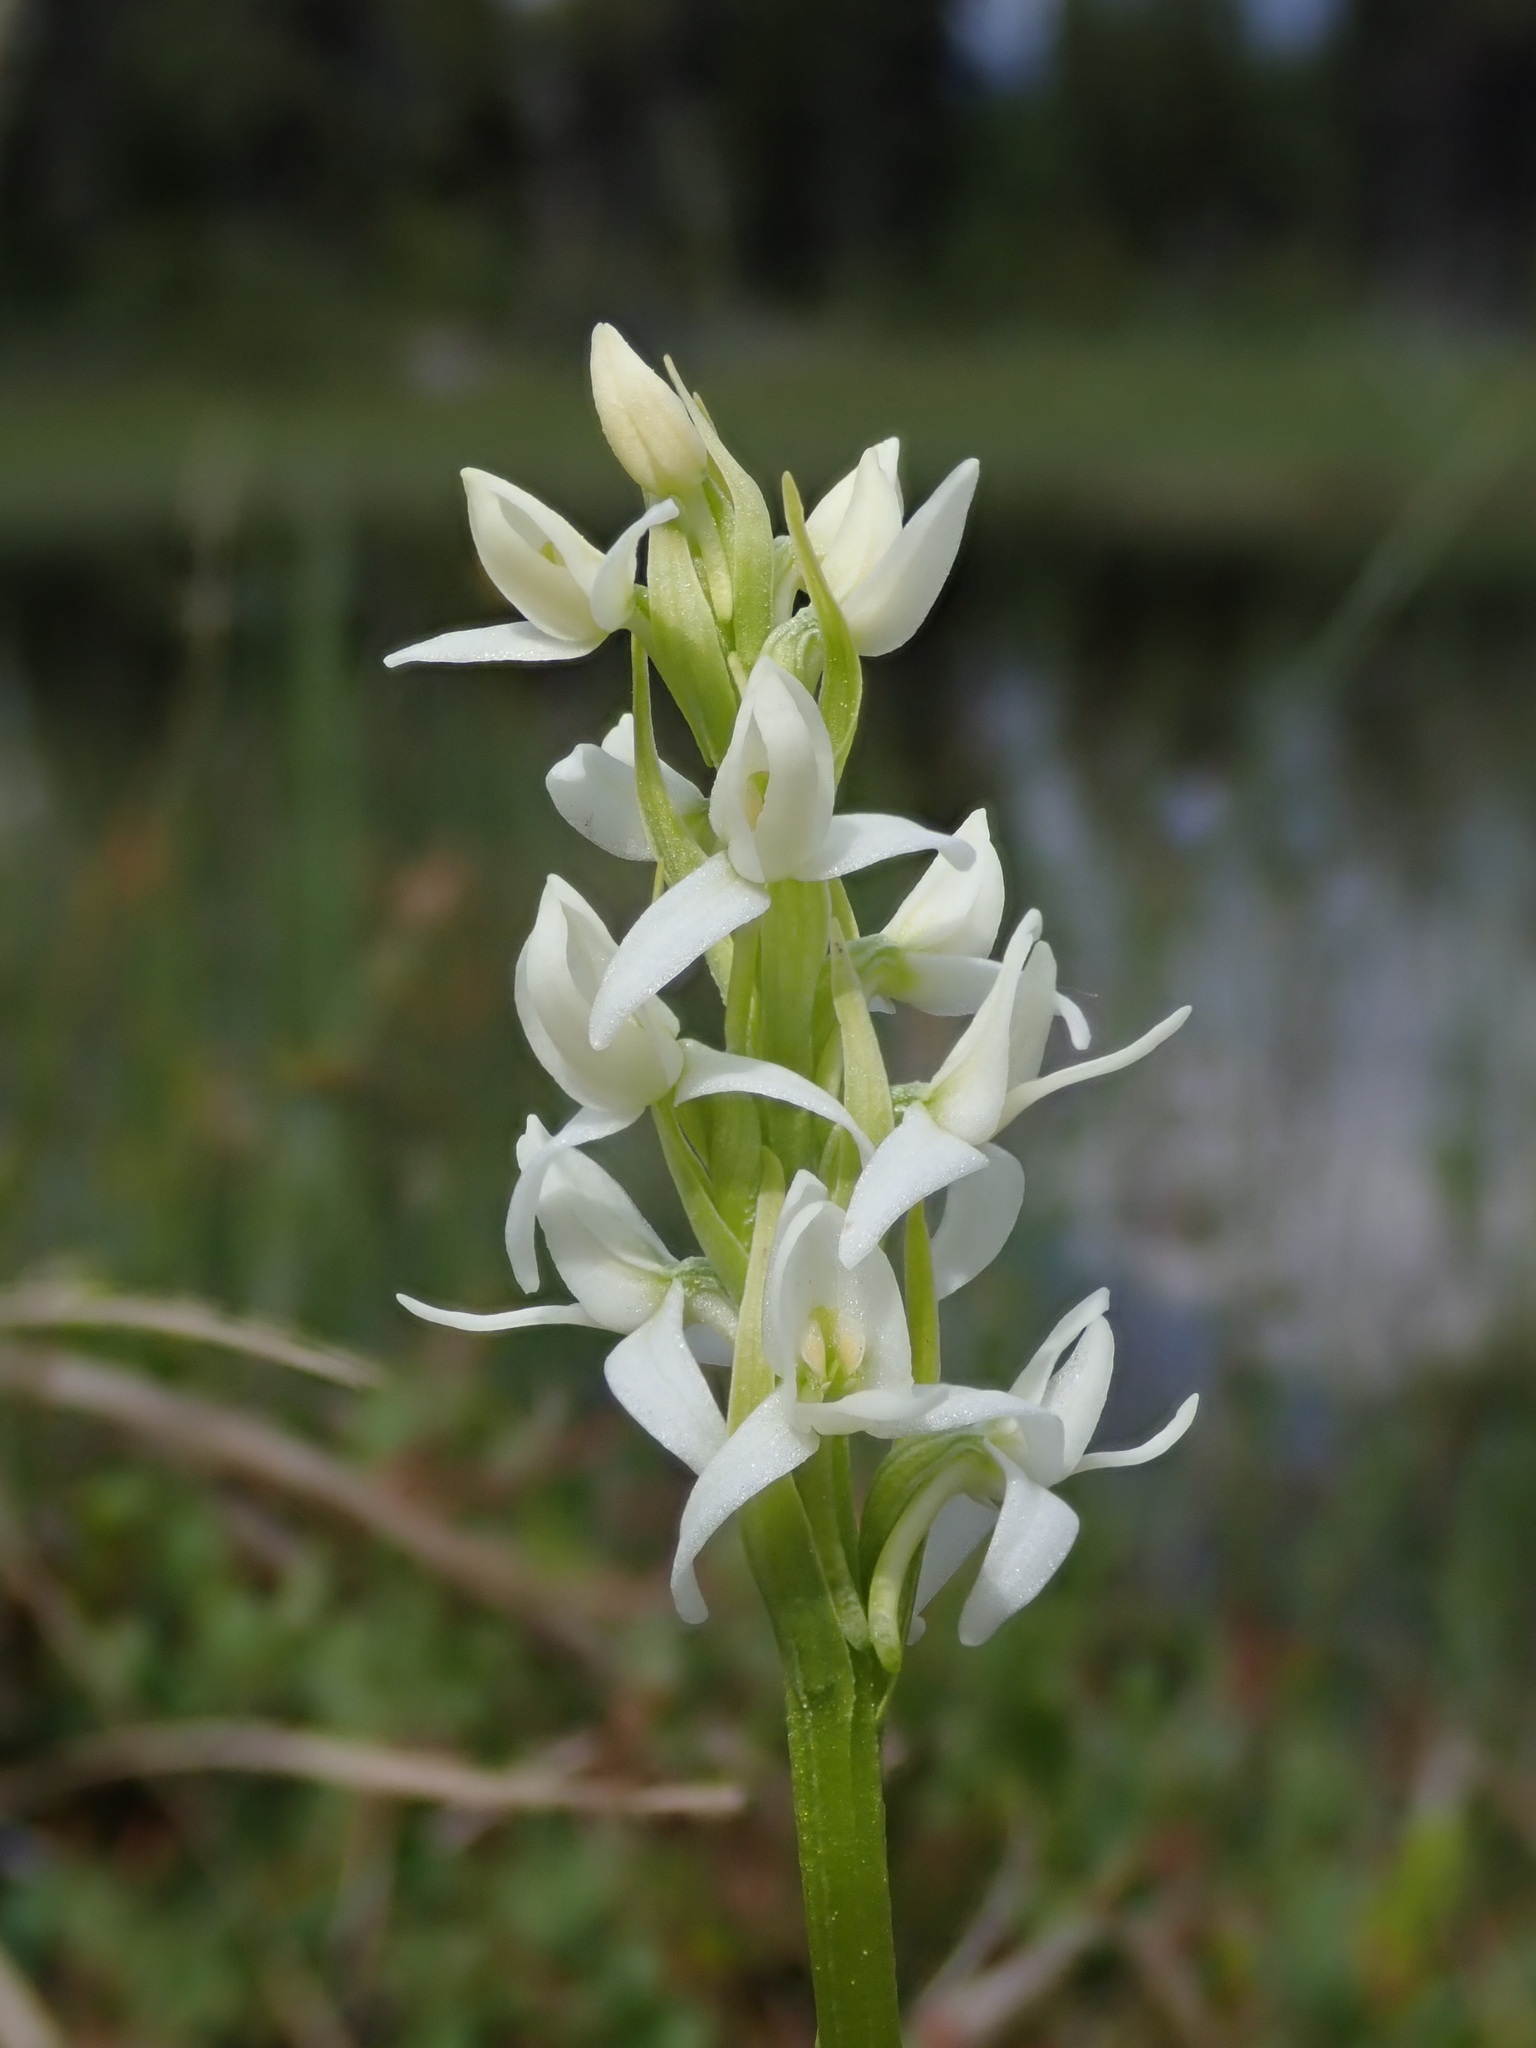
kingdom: Plantae
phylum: Tracheophyta
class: Liliopsida
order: Asparagales
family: Orchidaceae
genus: Platanthera
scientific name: Platanthera dilatata
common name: Bog candles
